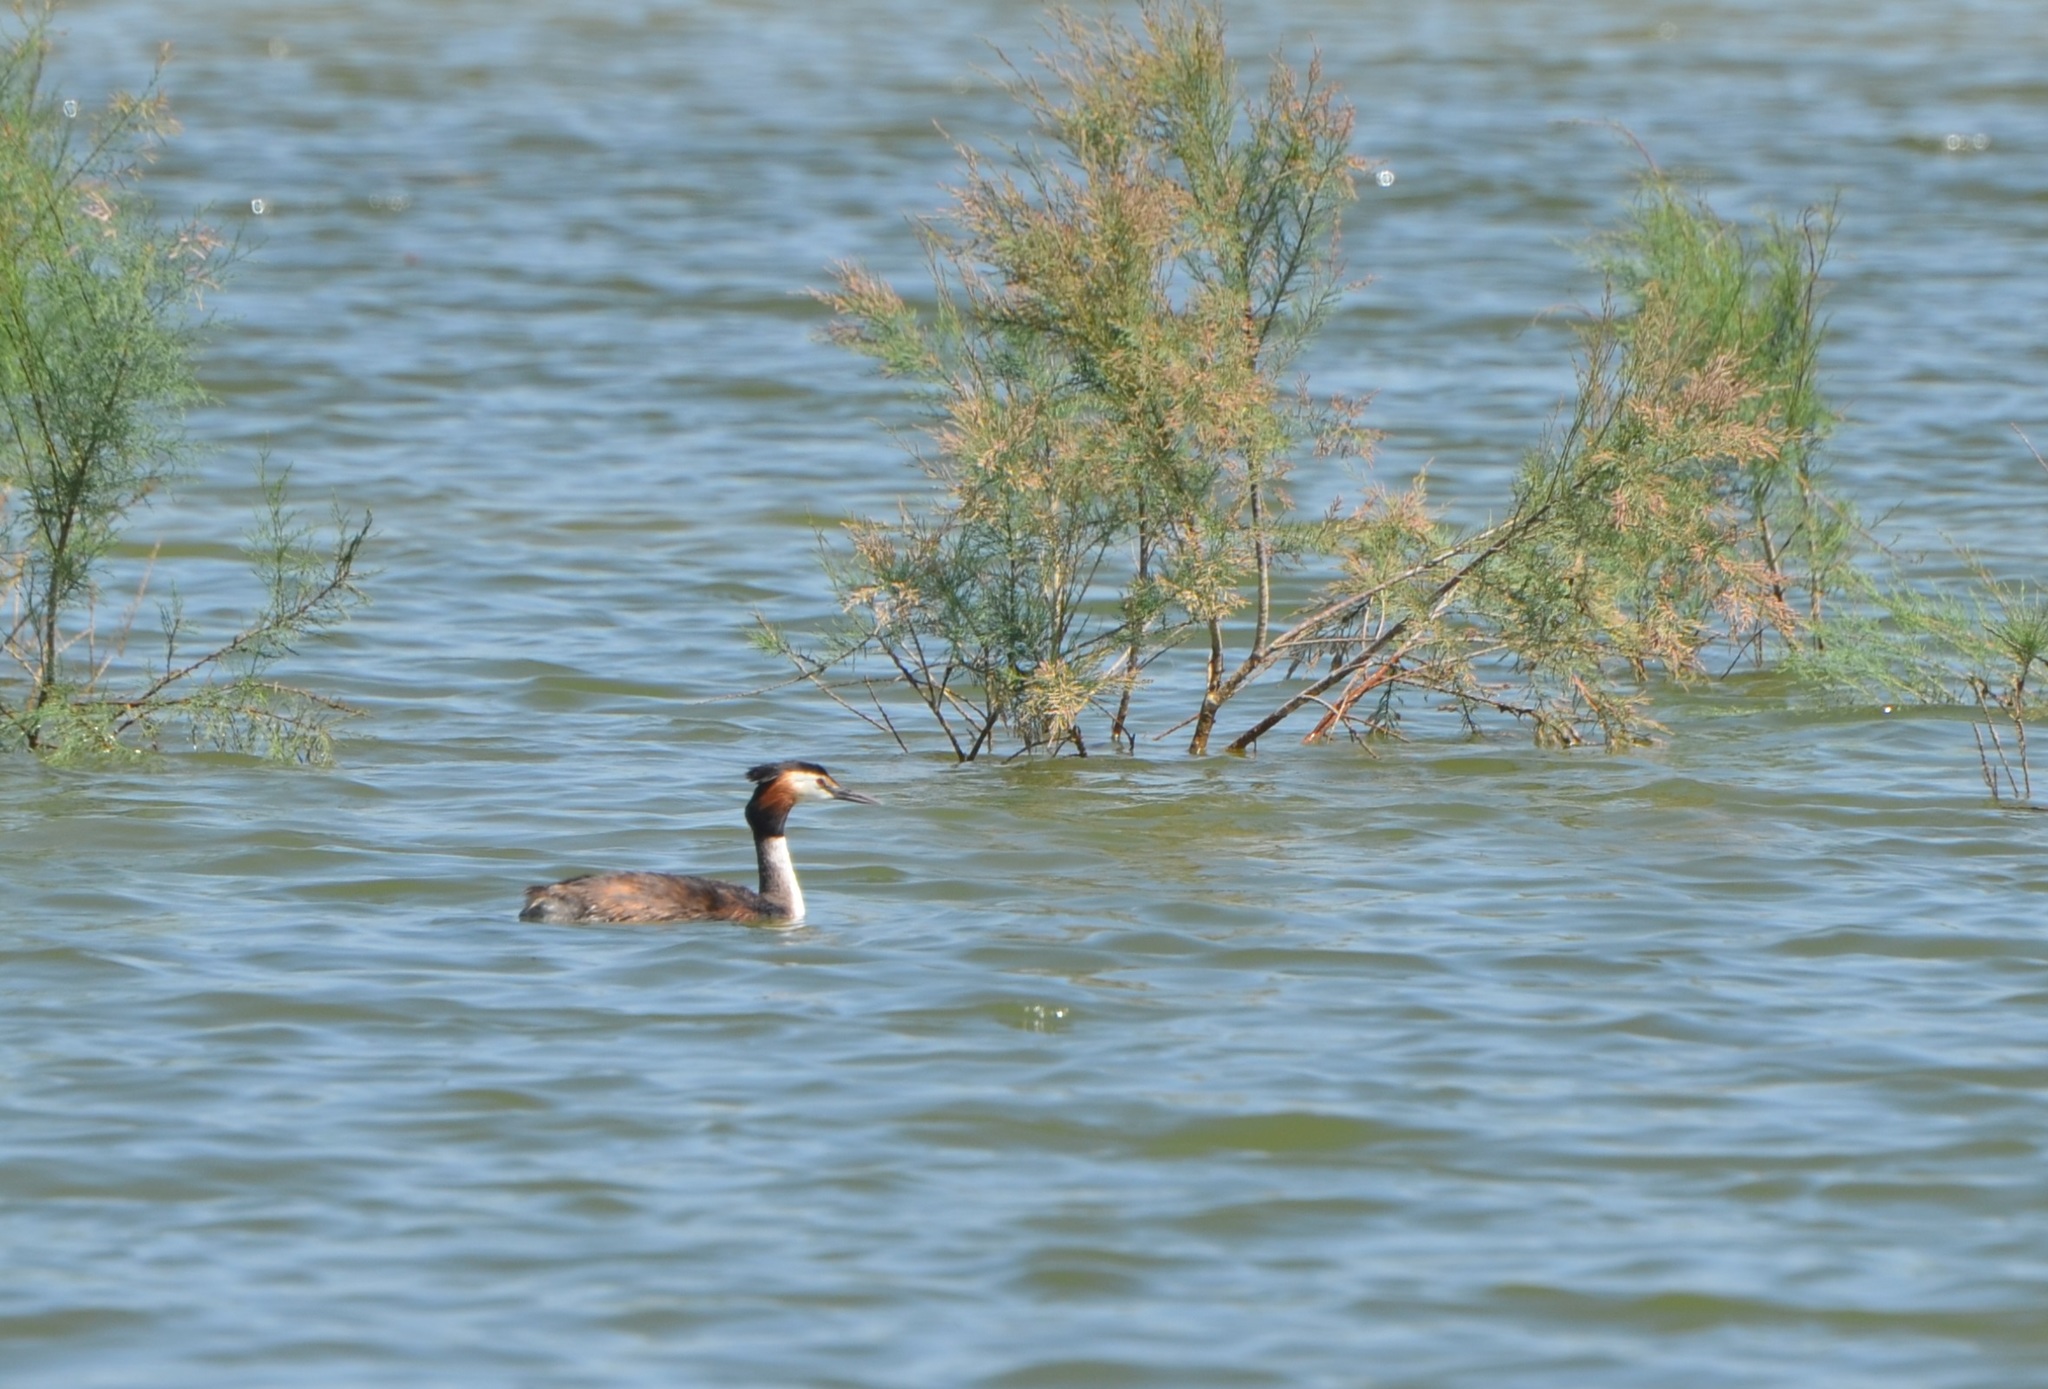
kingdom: Animalia
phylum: Chordata
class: Aves
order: Podicipediformes
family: Podicipedidae
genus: Podiceps
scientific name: Podiceps cristatus
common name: Great crested grebe
